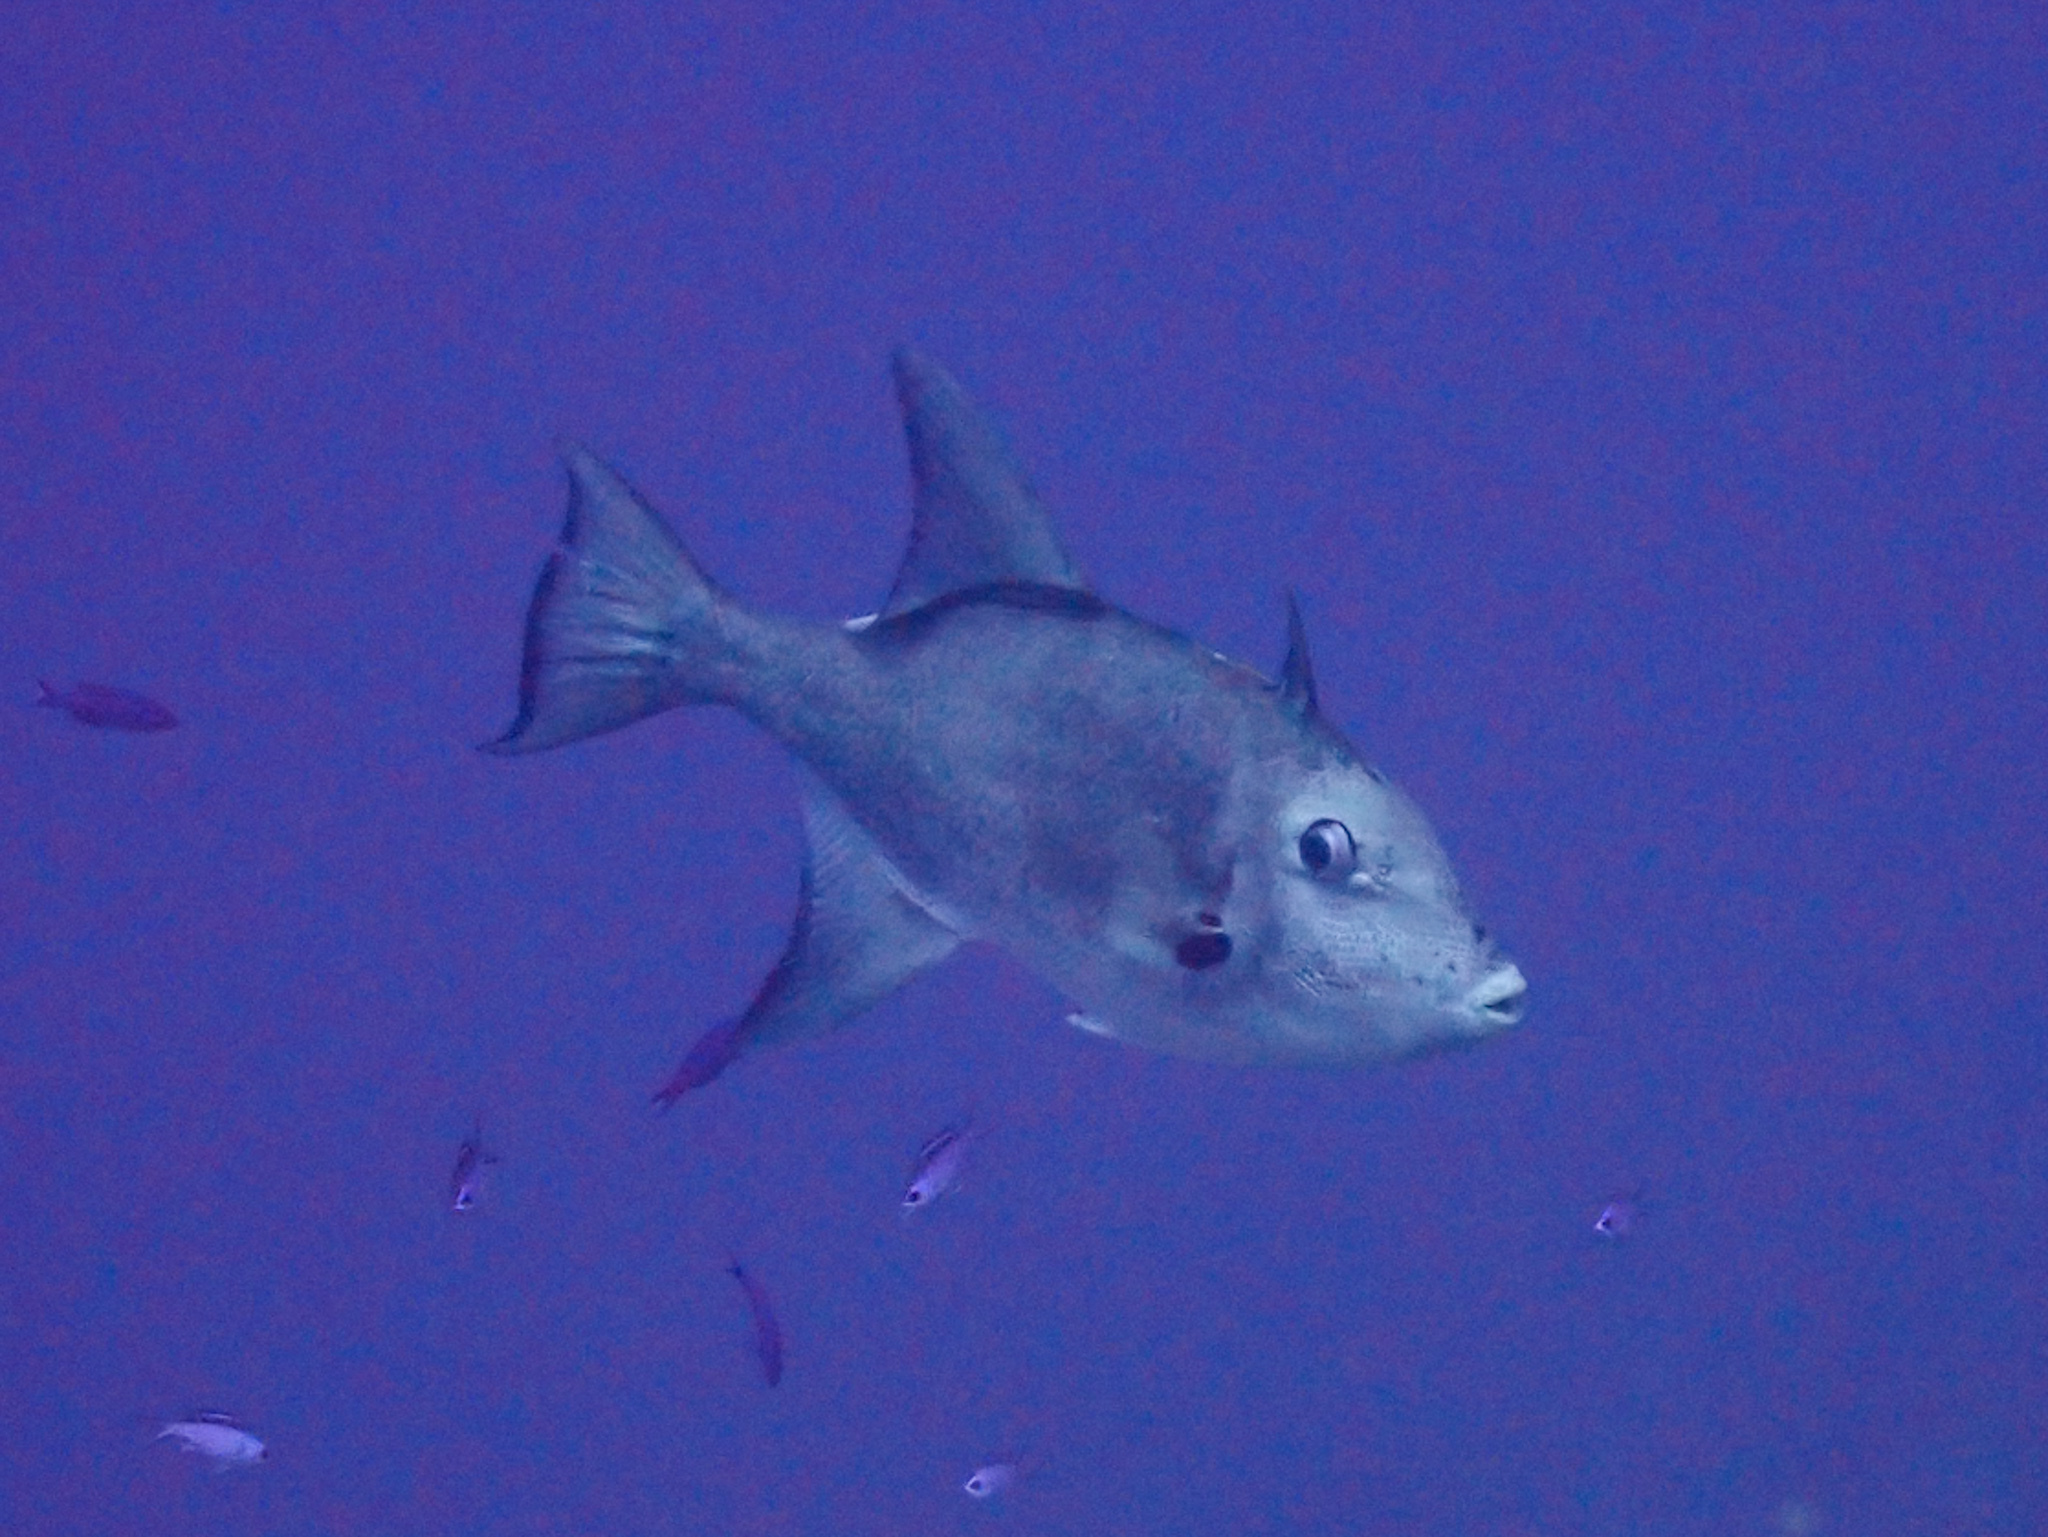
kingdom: Animalia
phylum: Chordata
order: Tetraodontiformes
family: Balistidae
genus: Canthidermis
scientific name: Canthidermis sufflamen
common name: Ocean triggerfish
